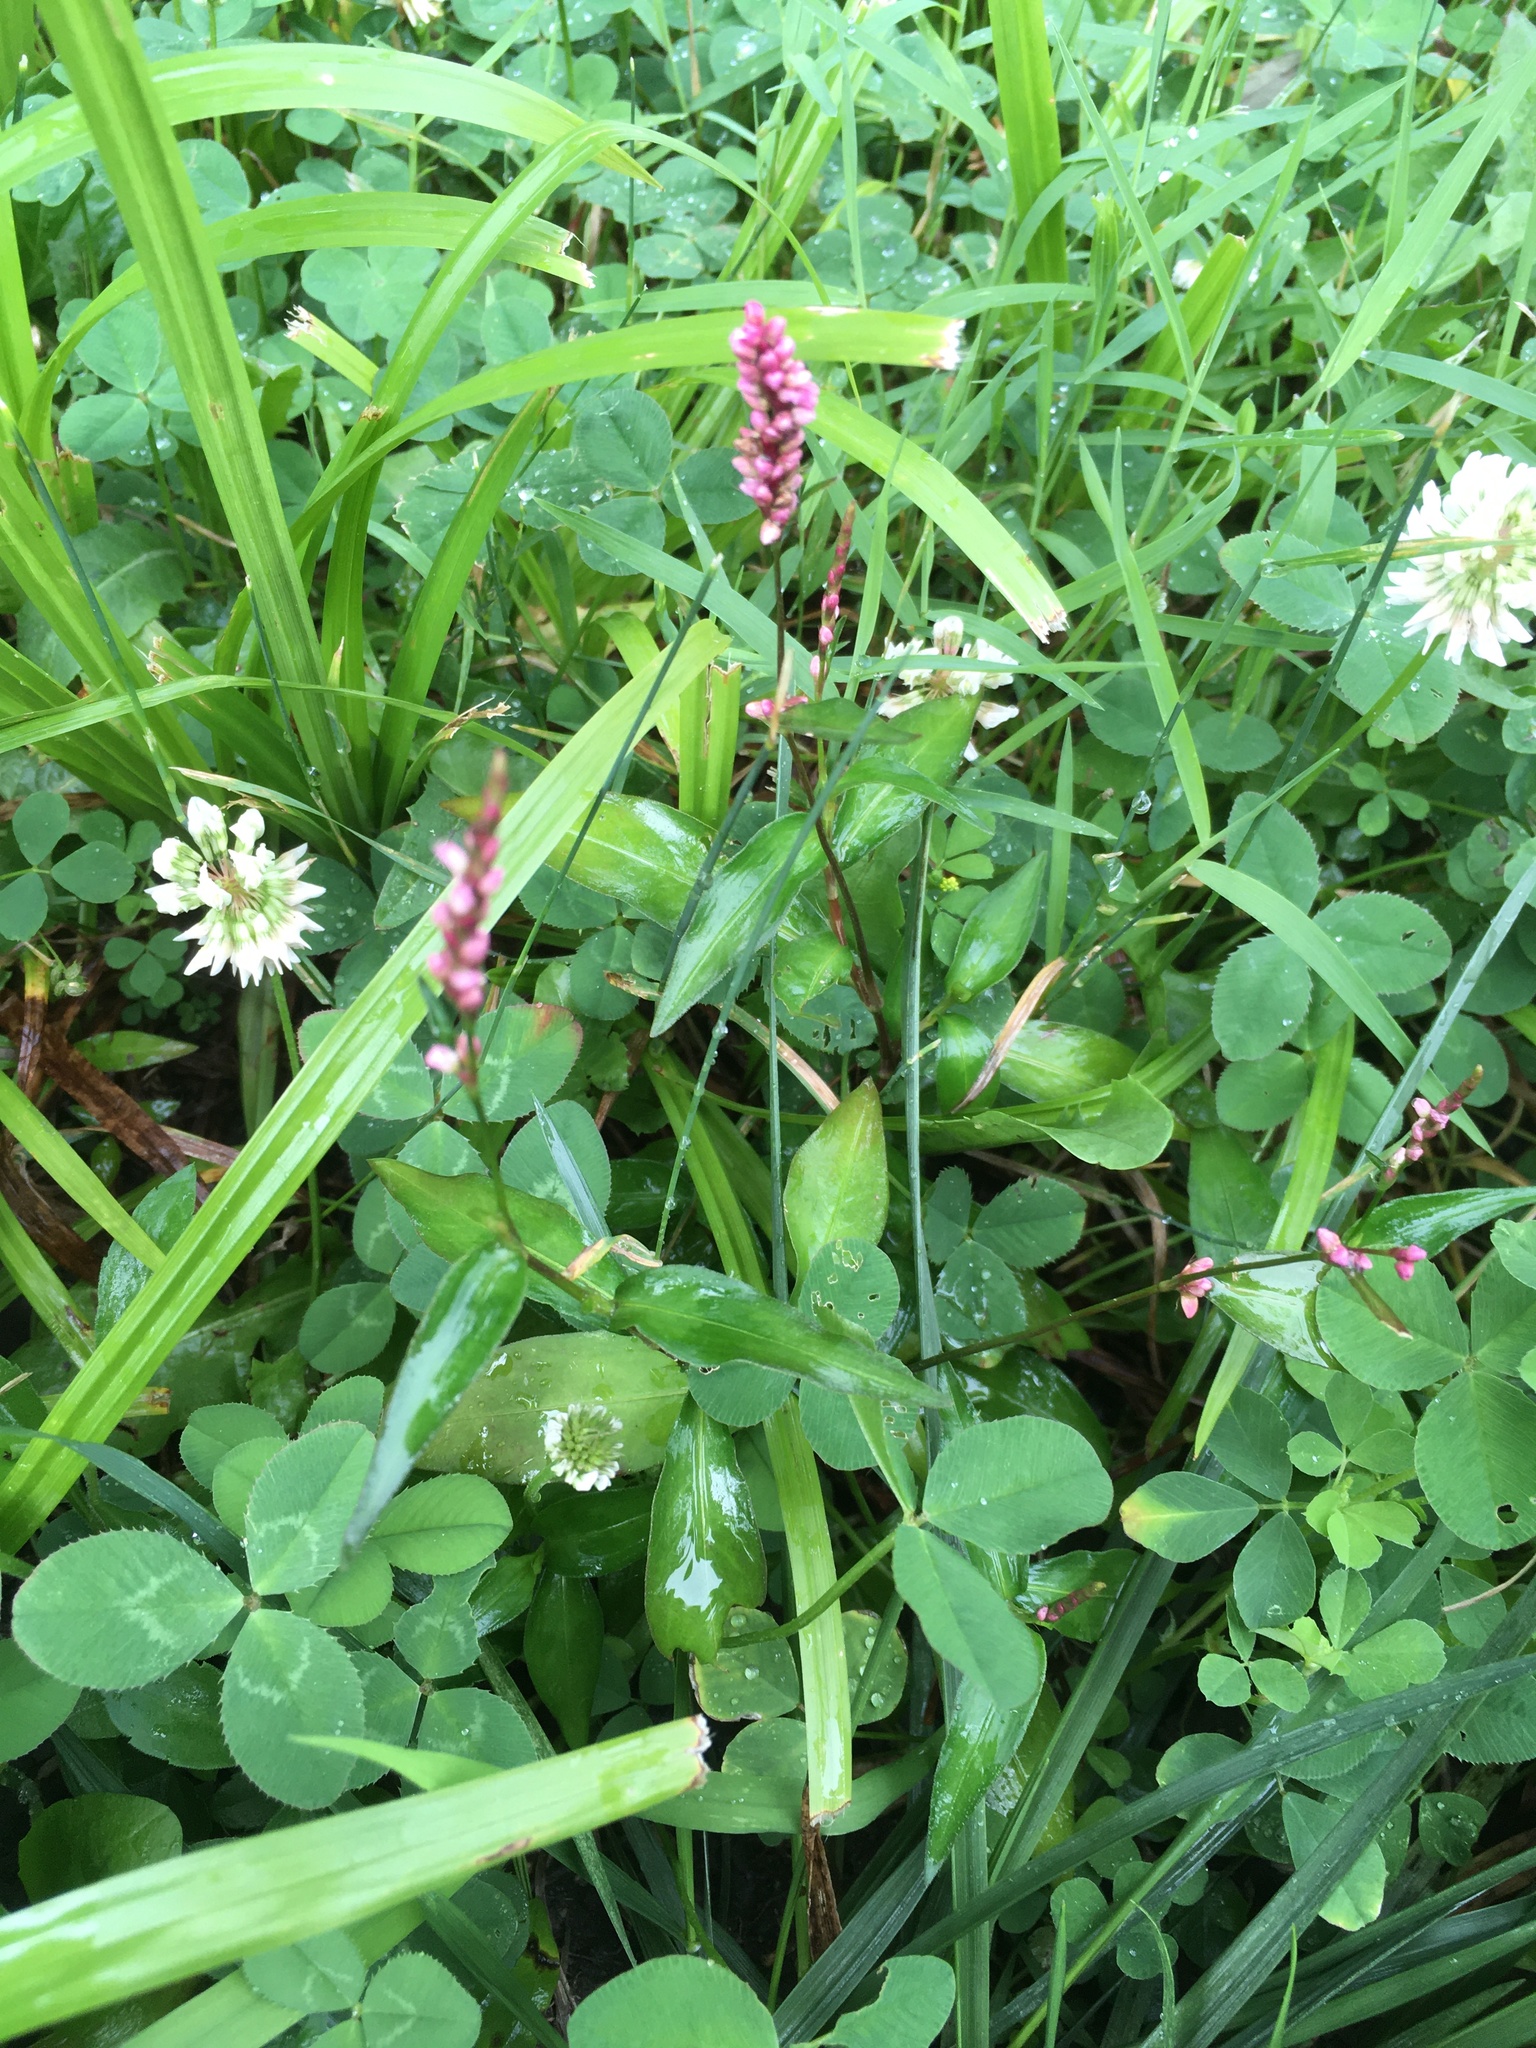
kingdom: Plantae
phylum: Tracheophyta
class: Magnoliopsida
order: Caryophyllales
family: Polygonaceae
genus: Persicaria
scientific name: Persicaria longiseta
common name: Bristly lady's-thumb
